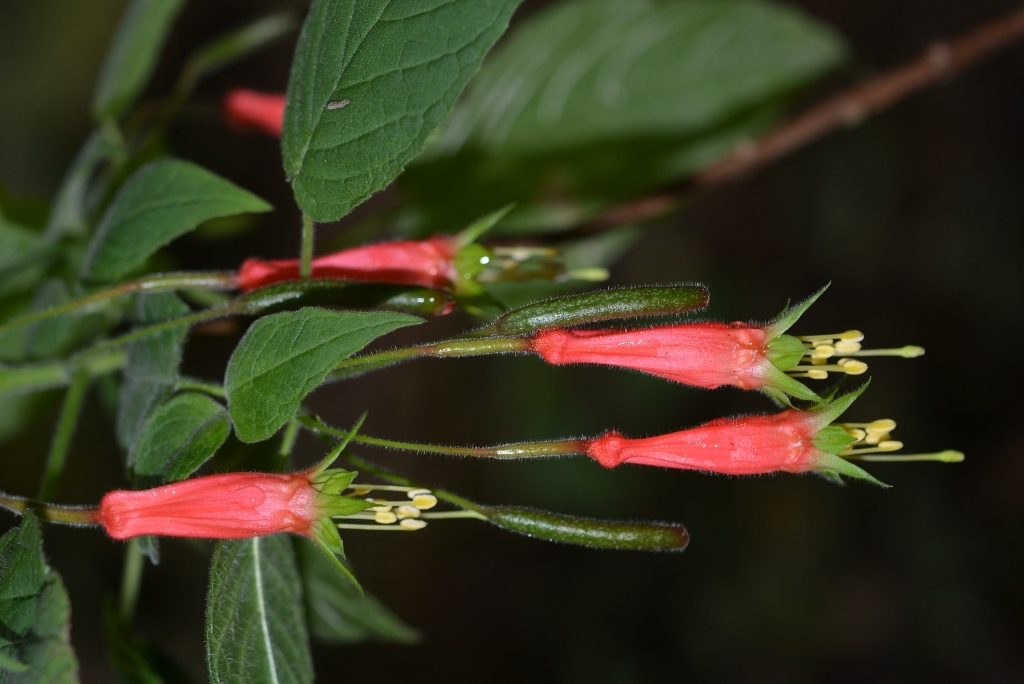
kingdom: Plantae
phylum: Tracheophyta
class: Magnoliopsida
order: Myrtales
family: Onagraceae
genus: Fuchsia
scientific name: Fuchsia splendens
